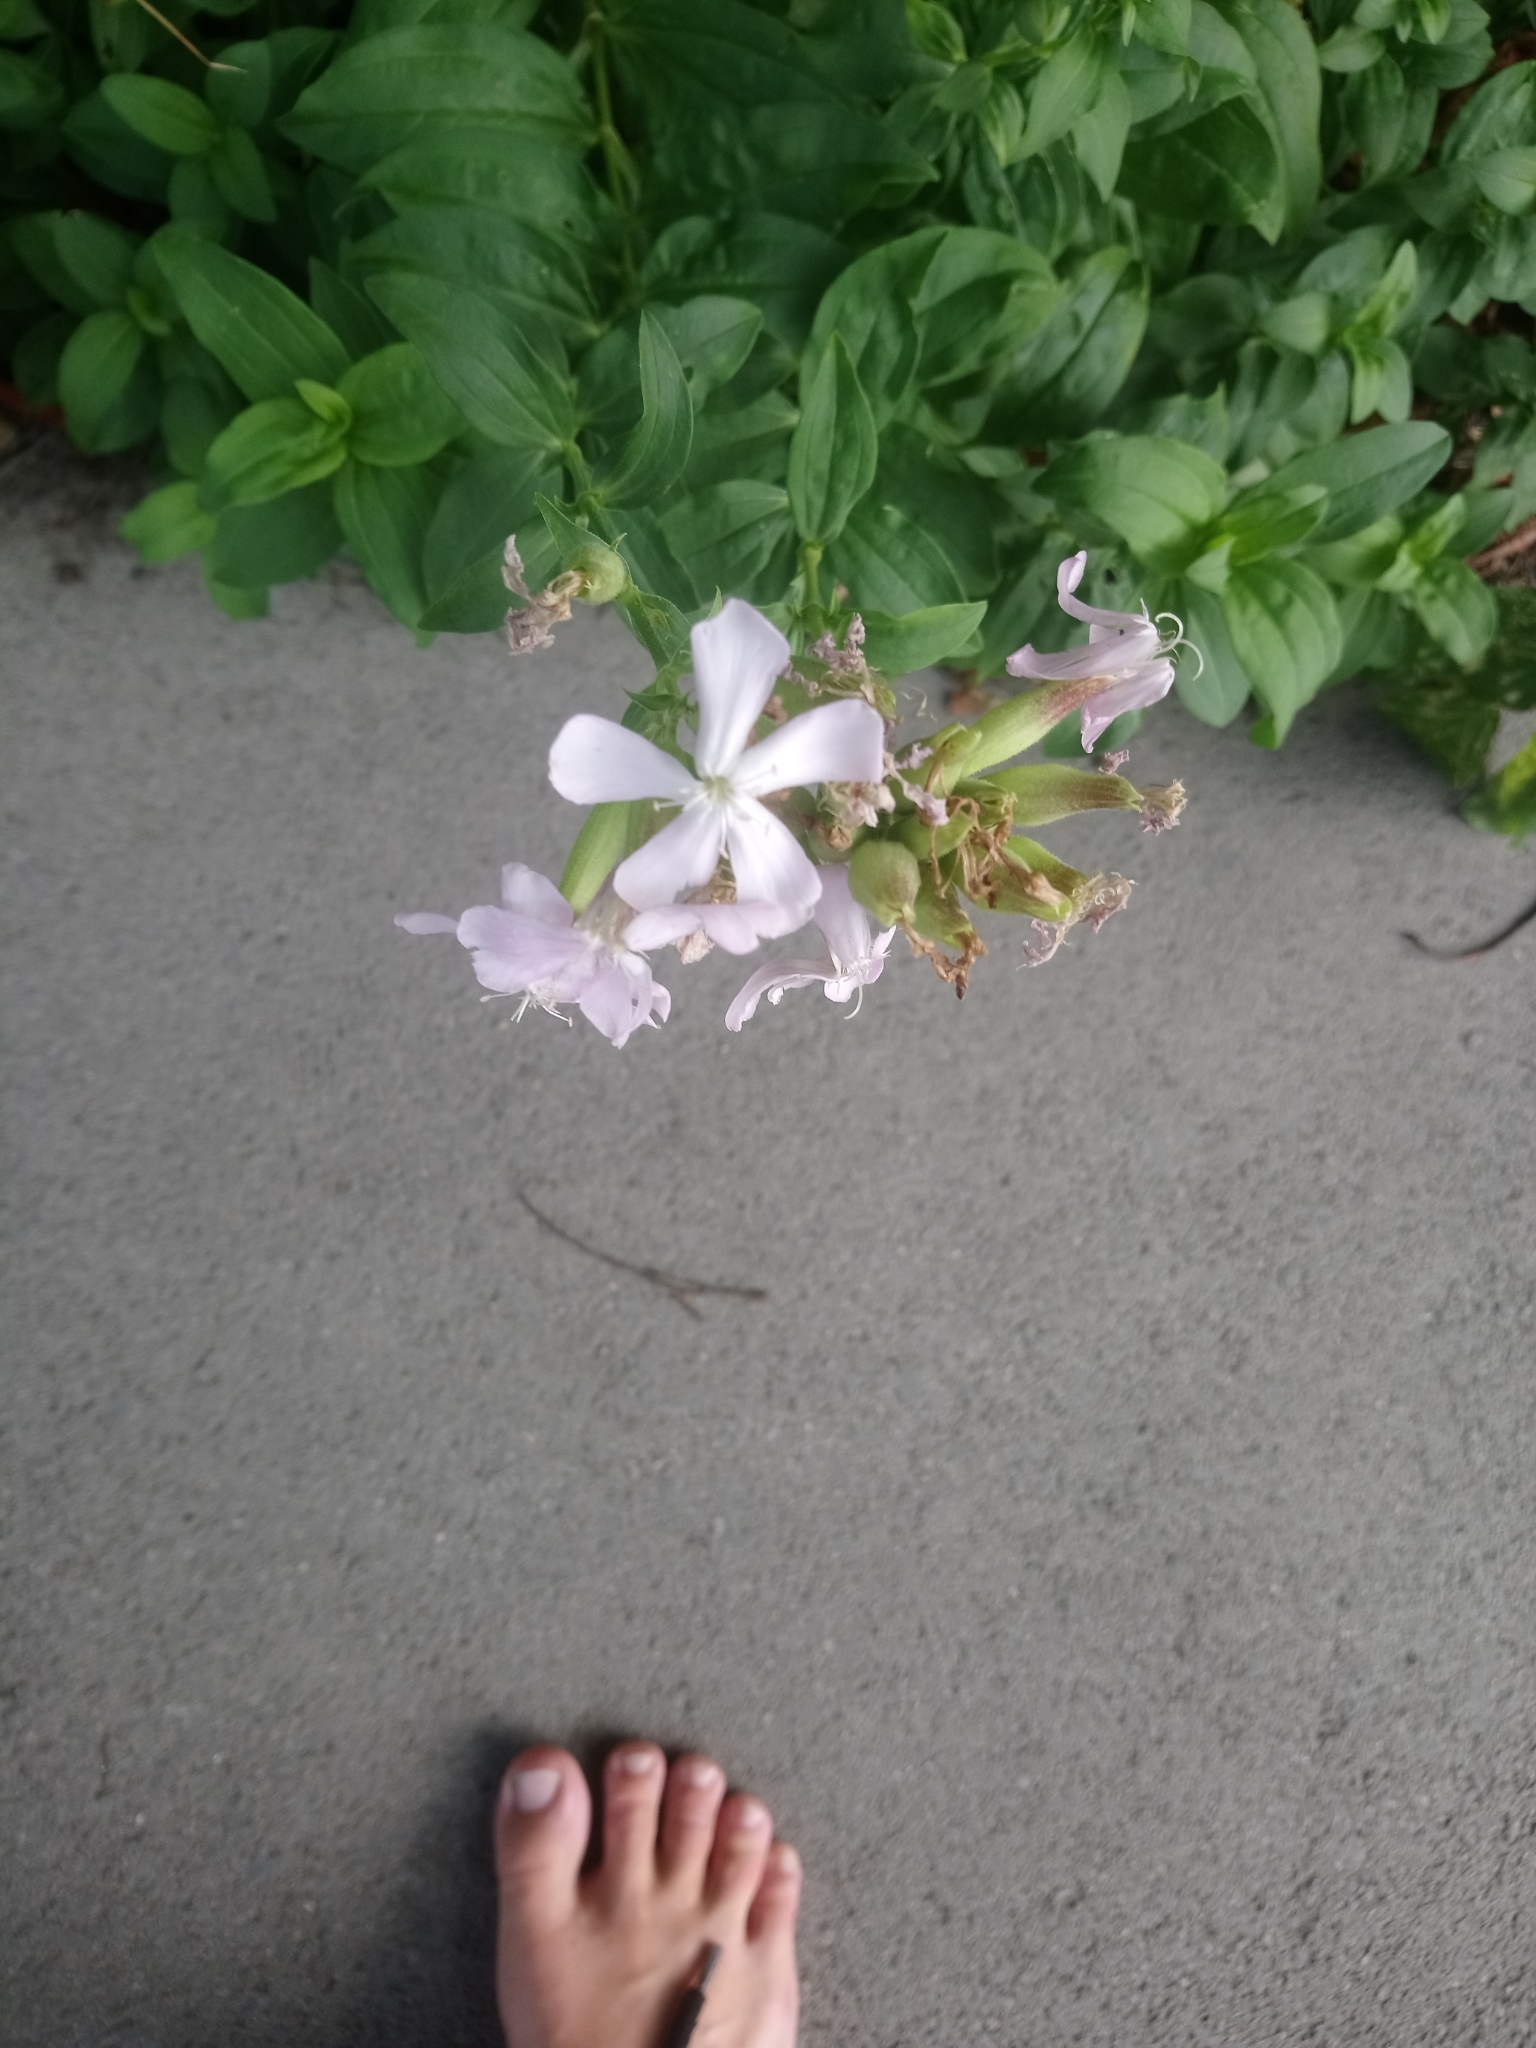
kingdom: Plantae
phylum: Tracheophyta
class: Magnoliopsida
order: Caryophyllales
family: Caryophyllaceae
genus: Saponaria
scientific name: Saponaria officinalis
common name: Soapwort
